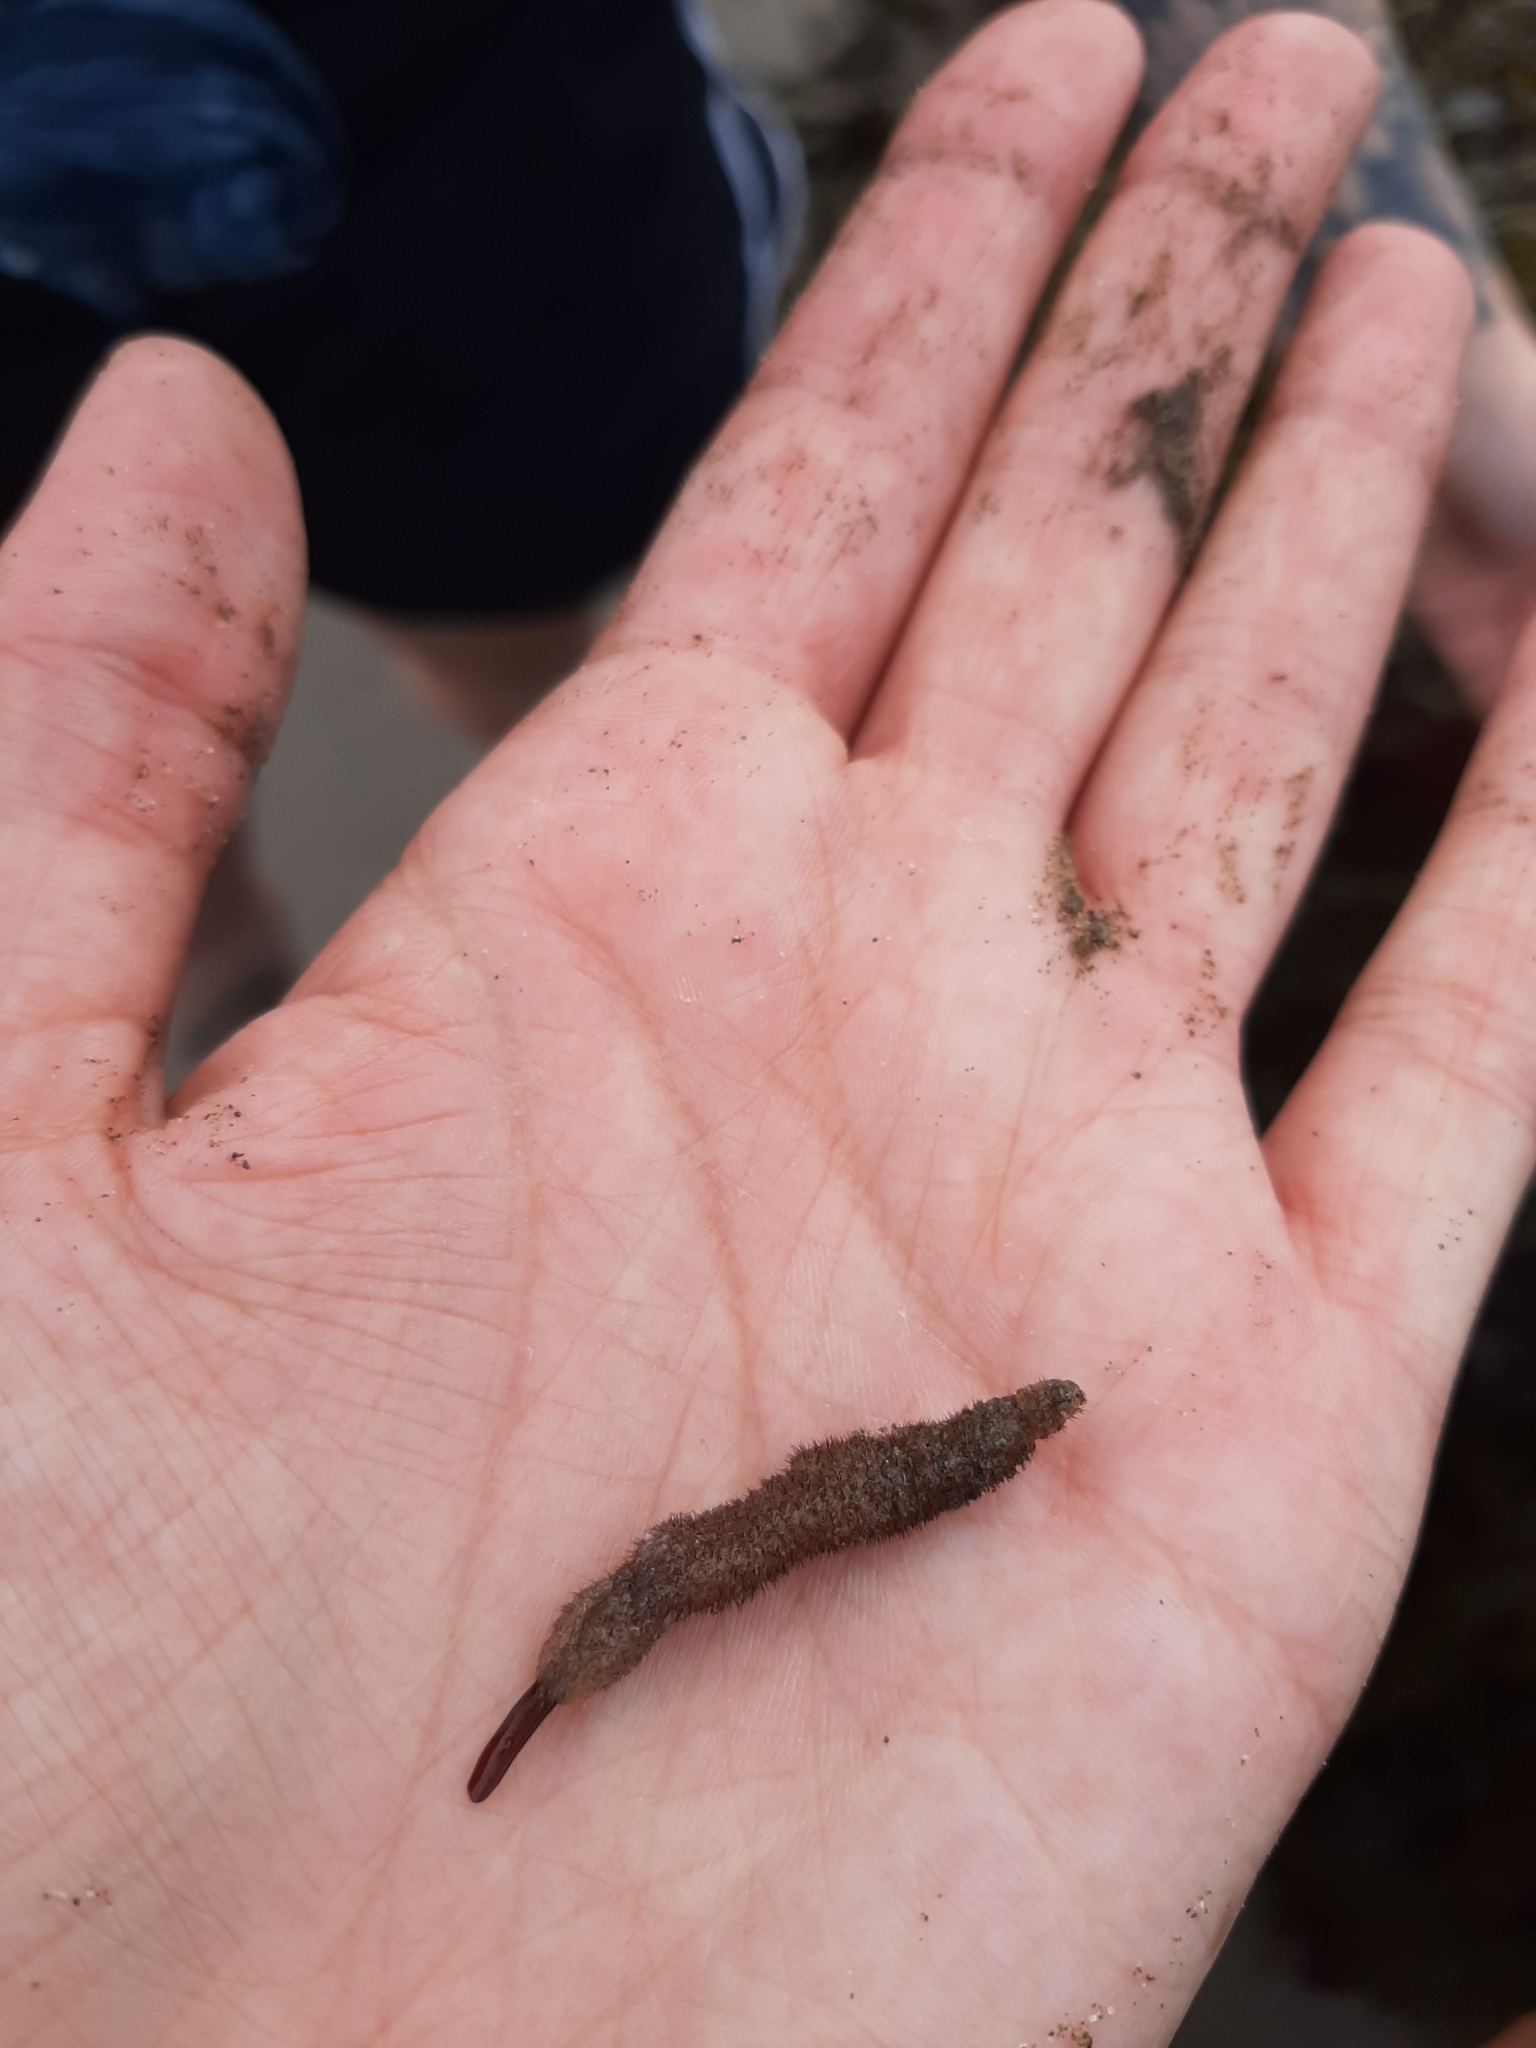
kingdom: Animalia
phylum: Bryozoa
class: Gymnolaemata
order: Ctenostomatida
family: Flustrellidridae
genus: Flustrellidra
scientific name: Flustrellidra hispida
